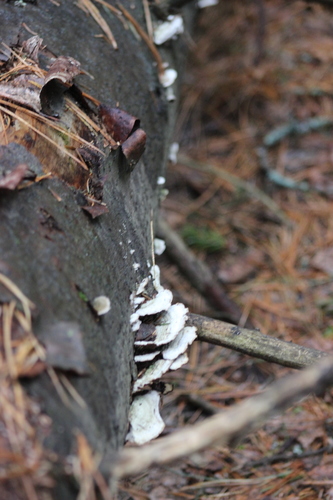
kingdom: Fungi
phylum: Basidiomycota
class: Agaricomycetes
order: Hymenochaetales
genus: Trichaptum
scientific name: Trichaptum fuscoviolaceum
